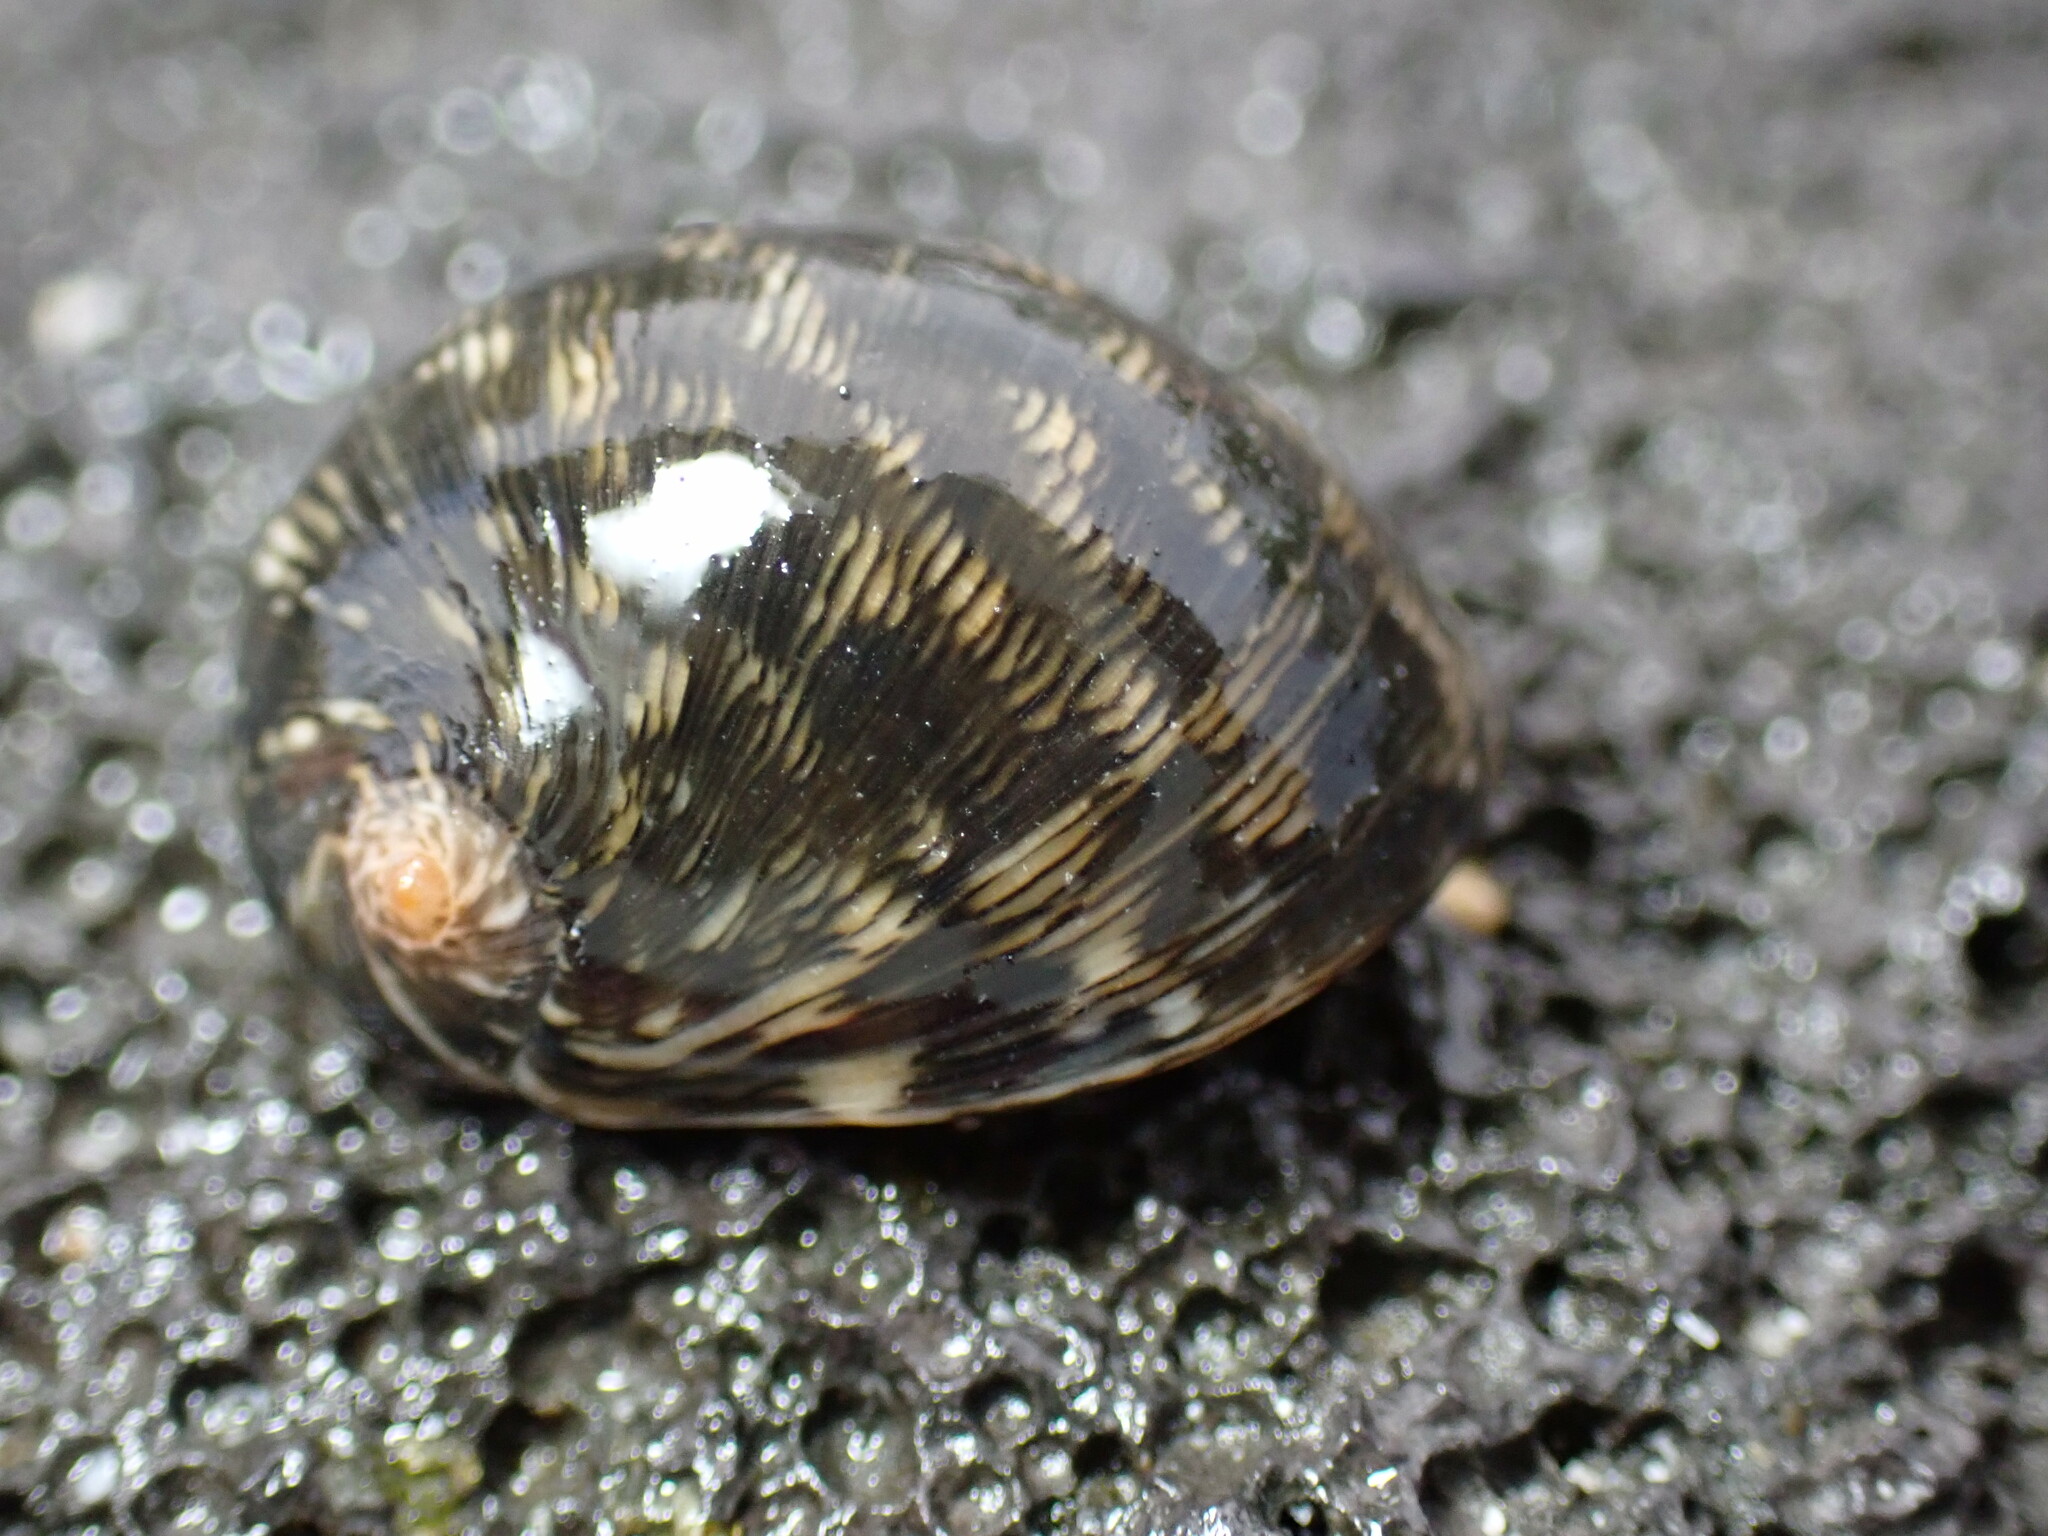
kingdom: Animalia
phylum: Mollusca
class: Gastropoda
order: Cycloneritida
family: Neritidae
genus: Nerita
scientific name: Nerita polita
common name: Polished nerite
